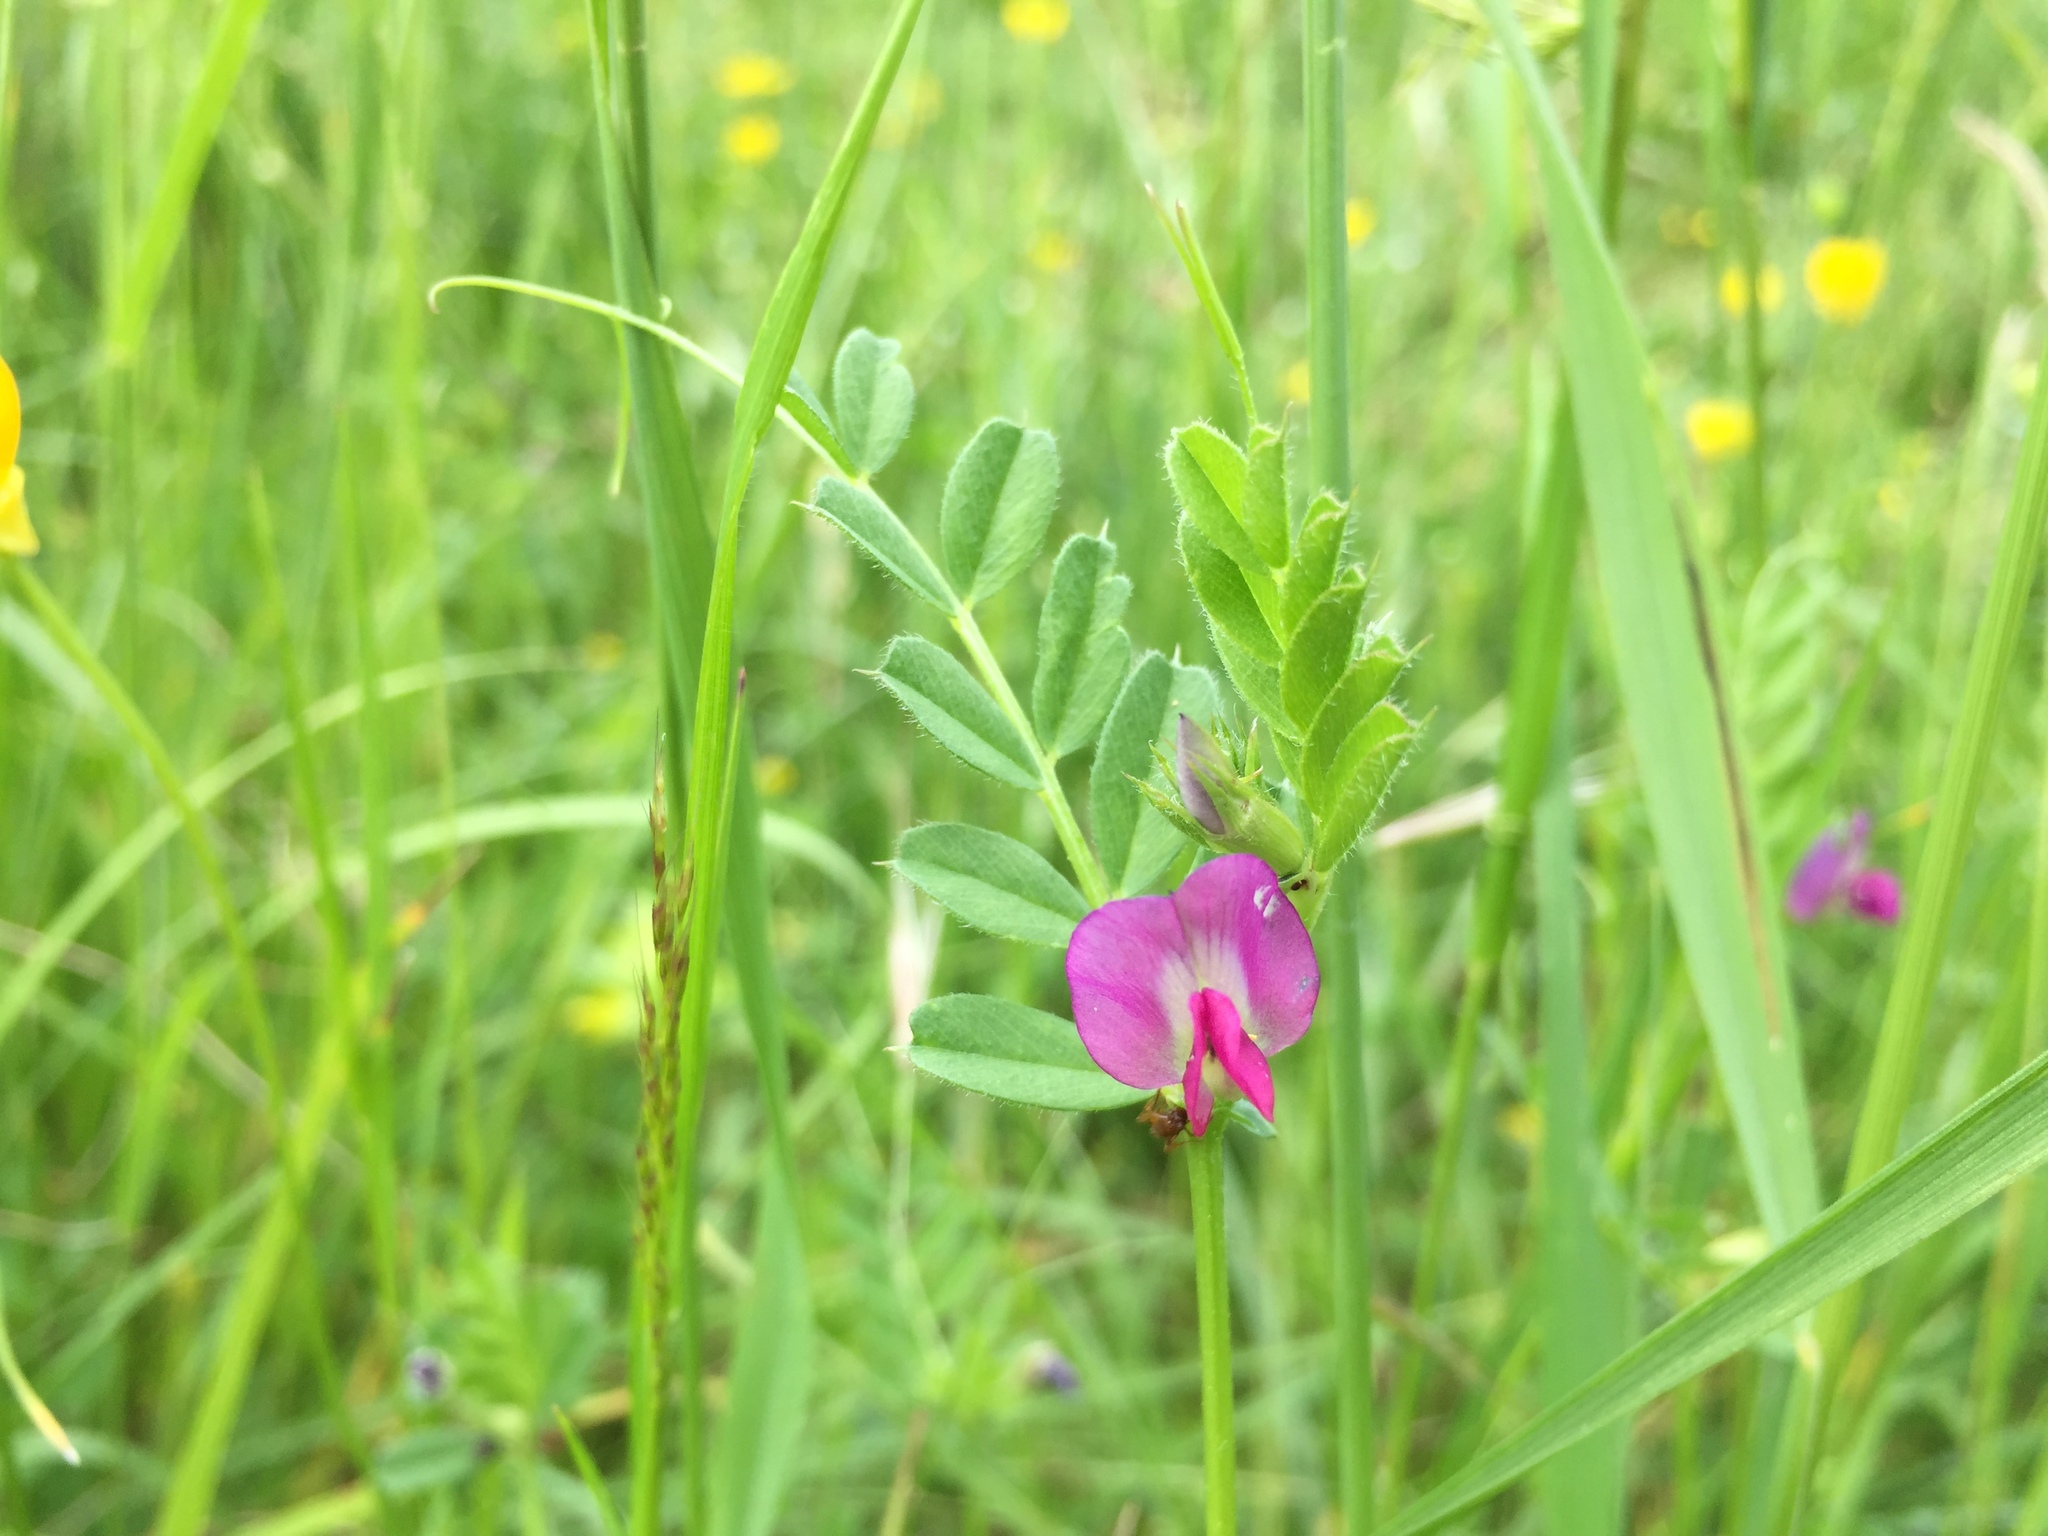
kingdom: Plantae
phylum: Tracheophyta
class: Magnoliopsida
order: Fabales
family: Fabaceae
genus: Vicia
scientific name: Vicia sativa
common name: Garden vetch
